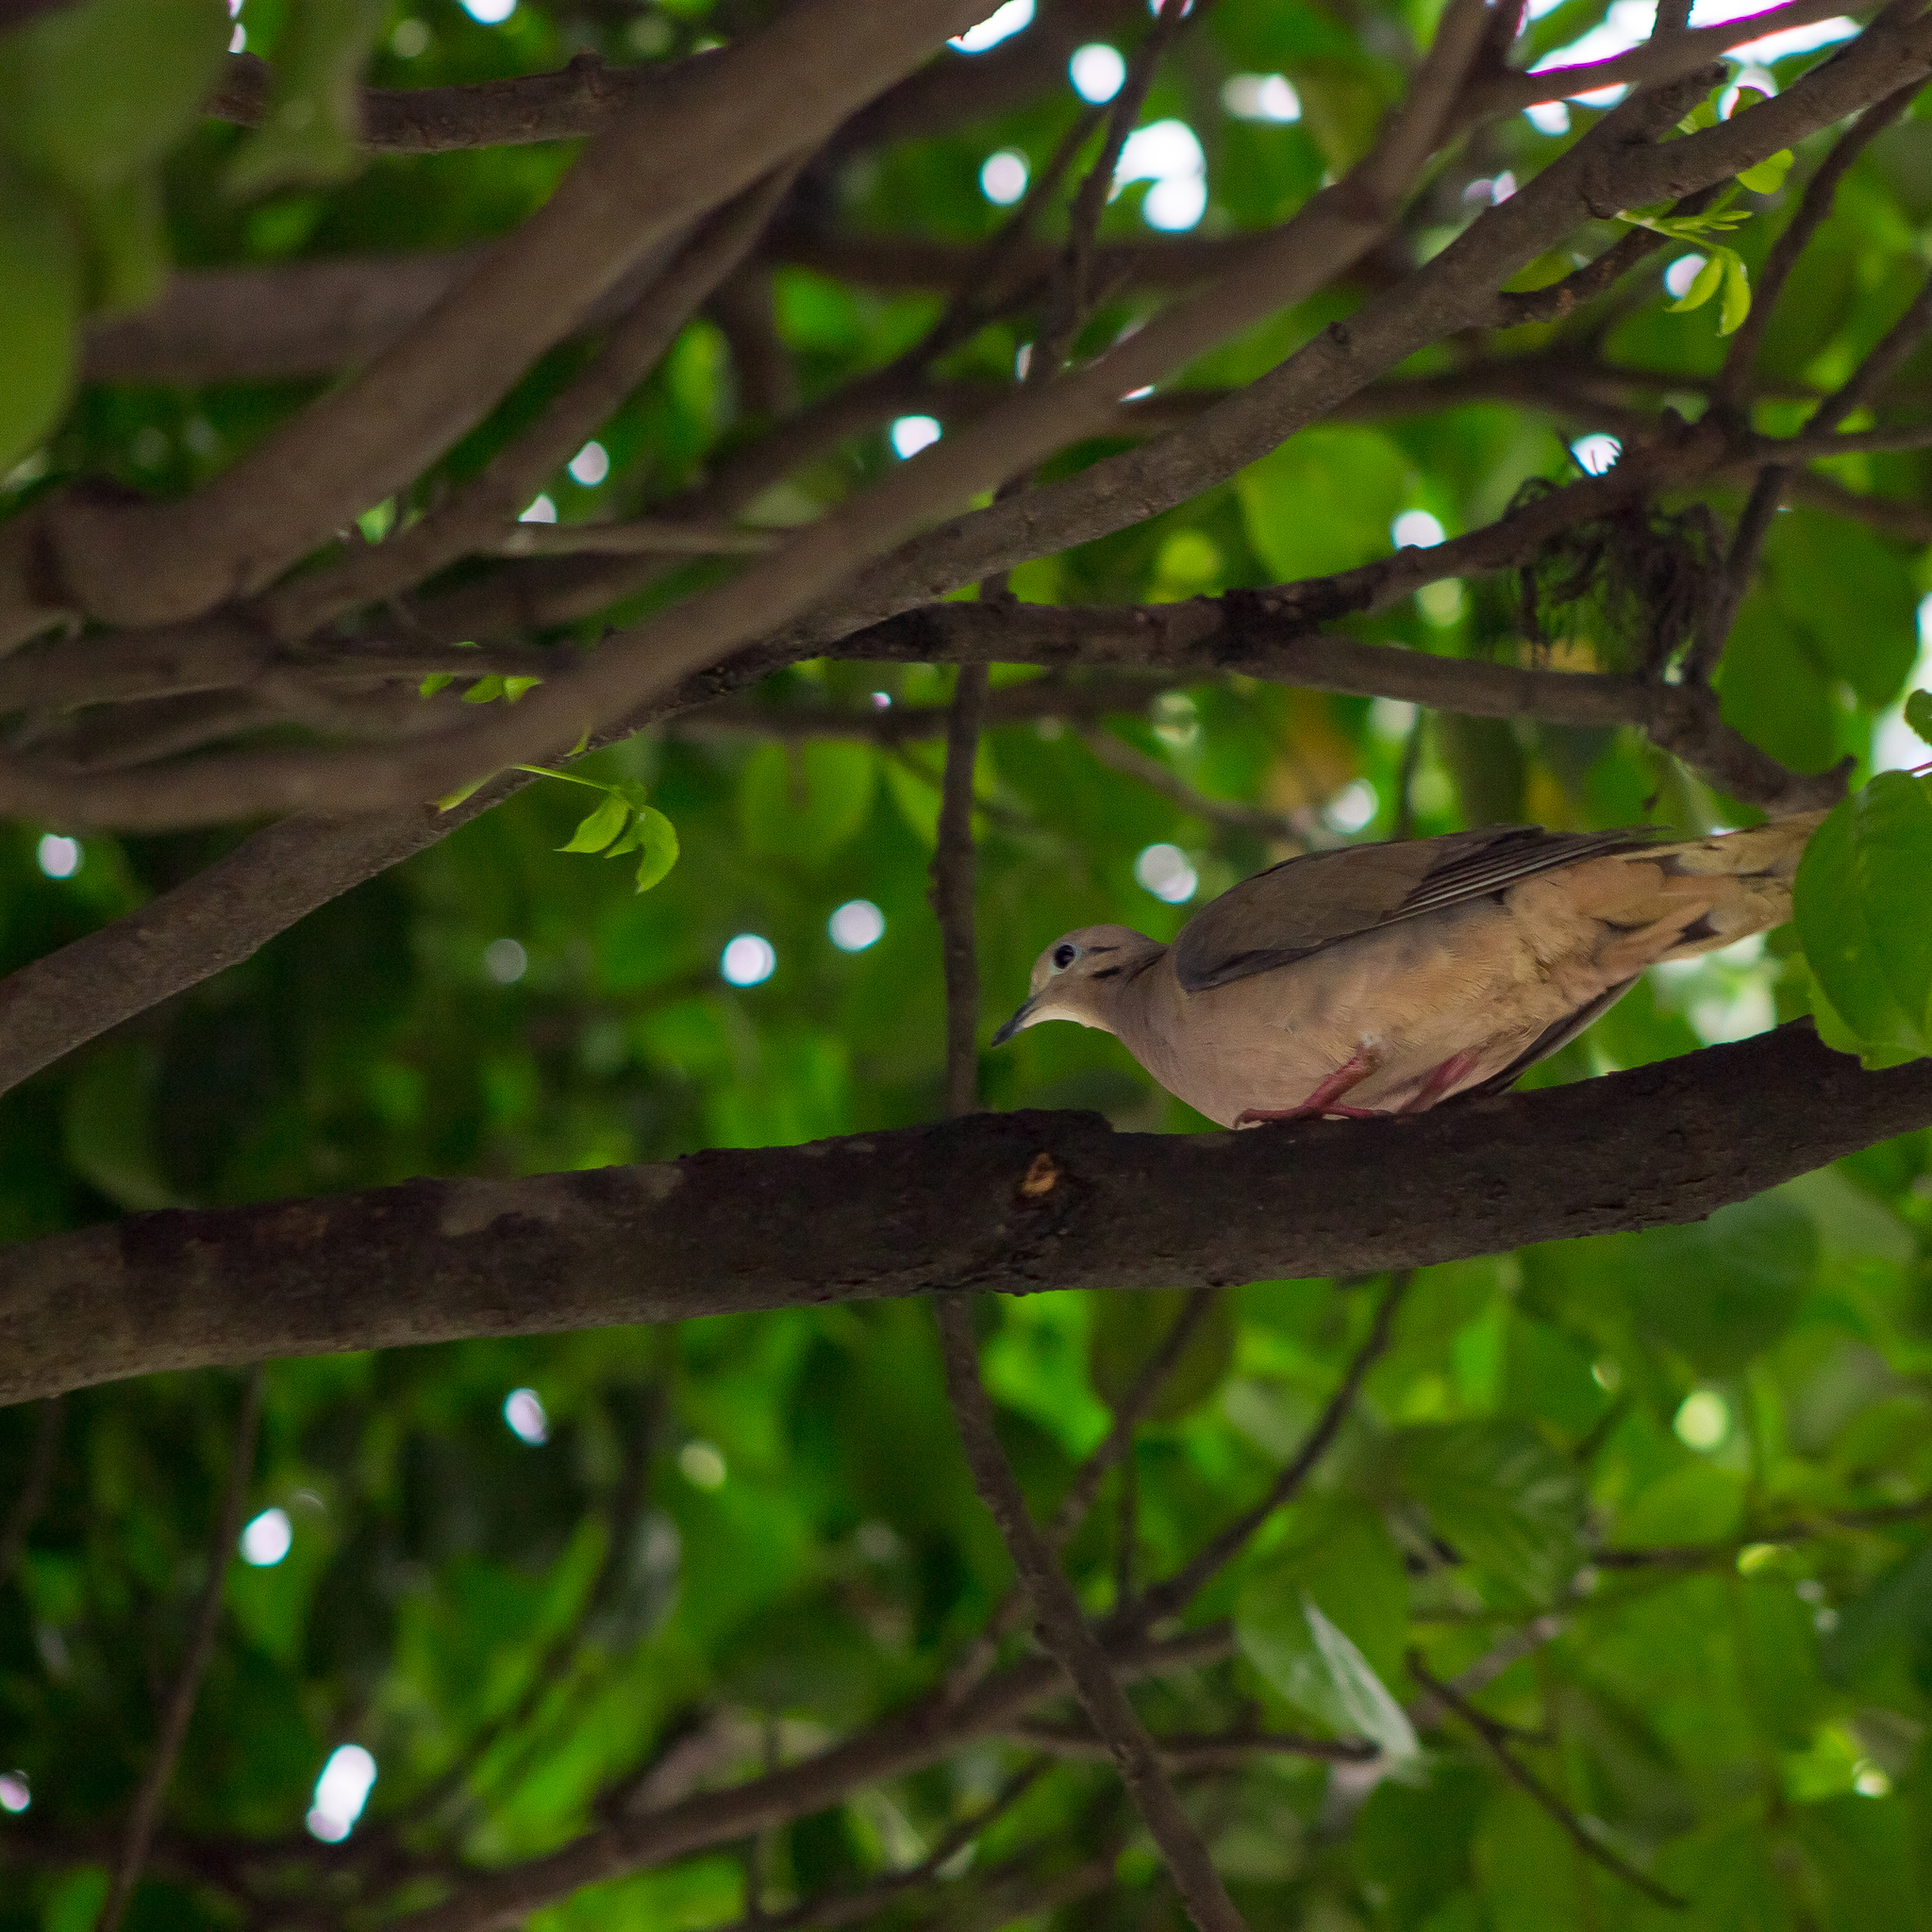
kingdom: Animalia
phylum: Chordata
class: Aves
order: Columbiformes
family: Columbidae
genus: Zenaida
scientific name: Zenaida auriculata
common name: Eared dove
